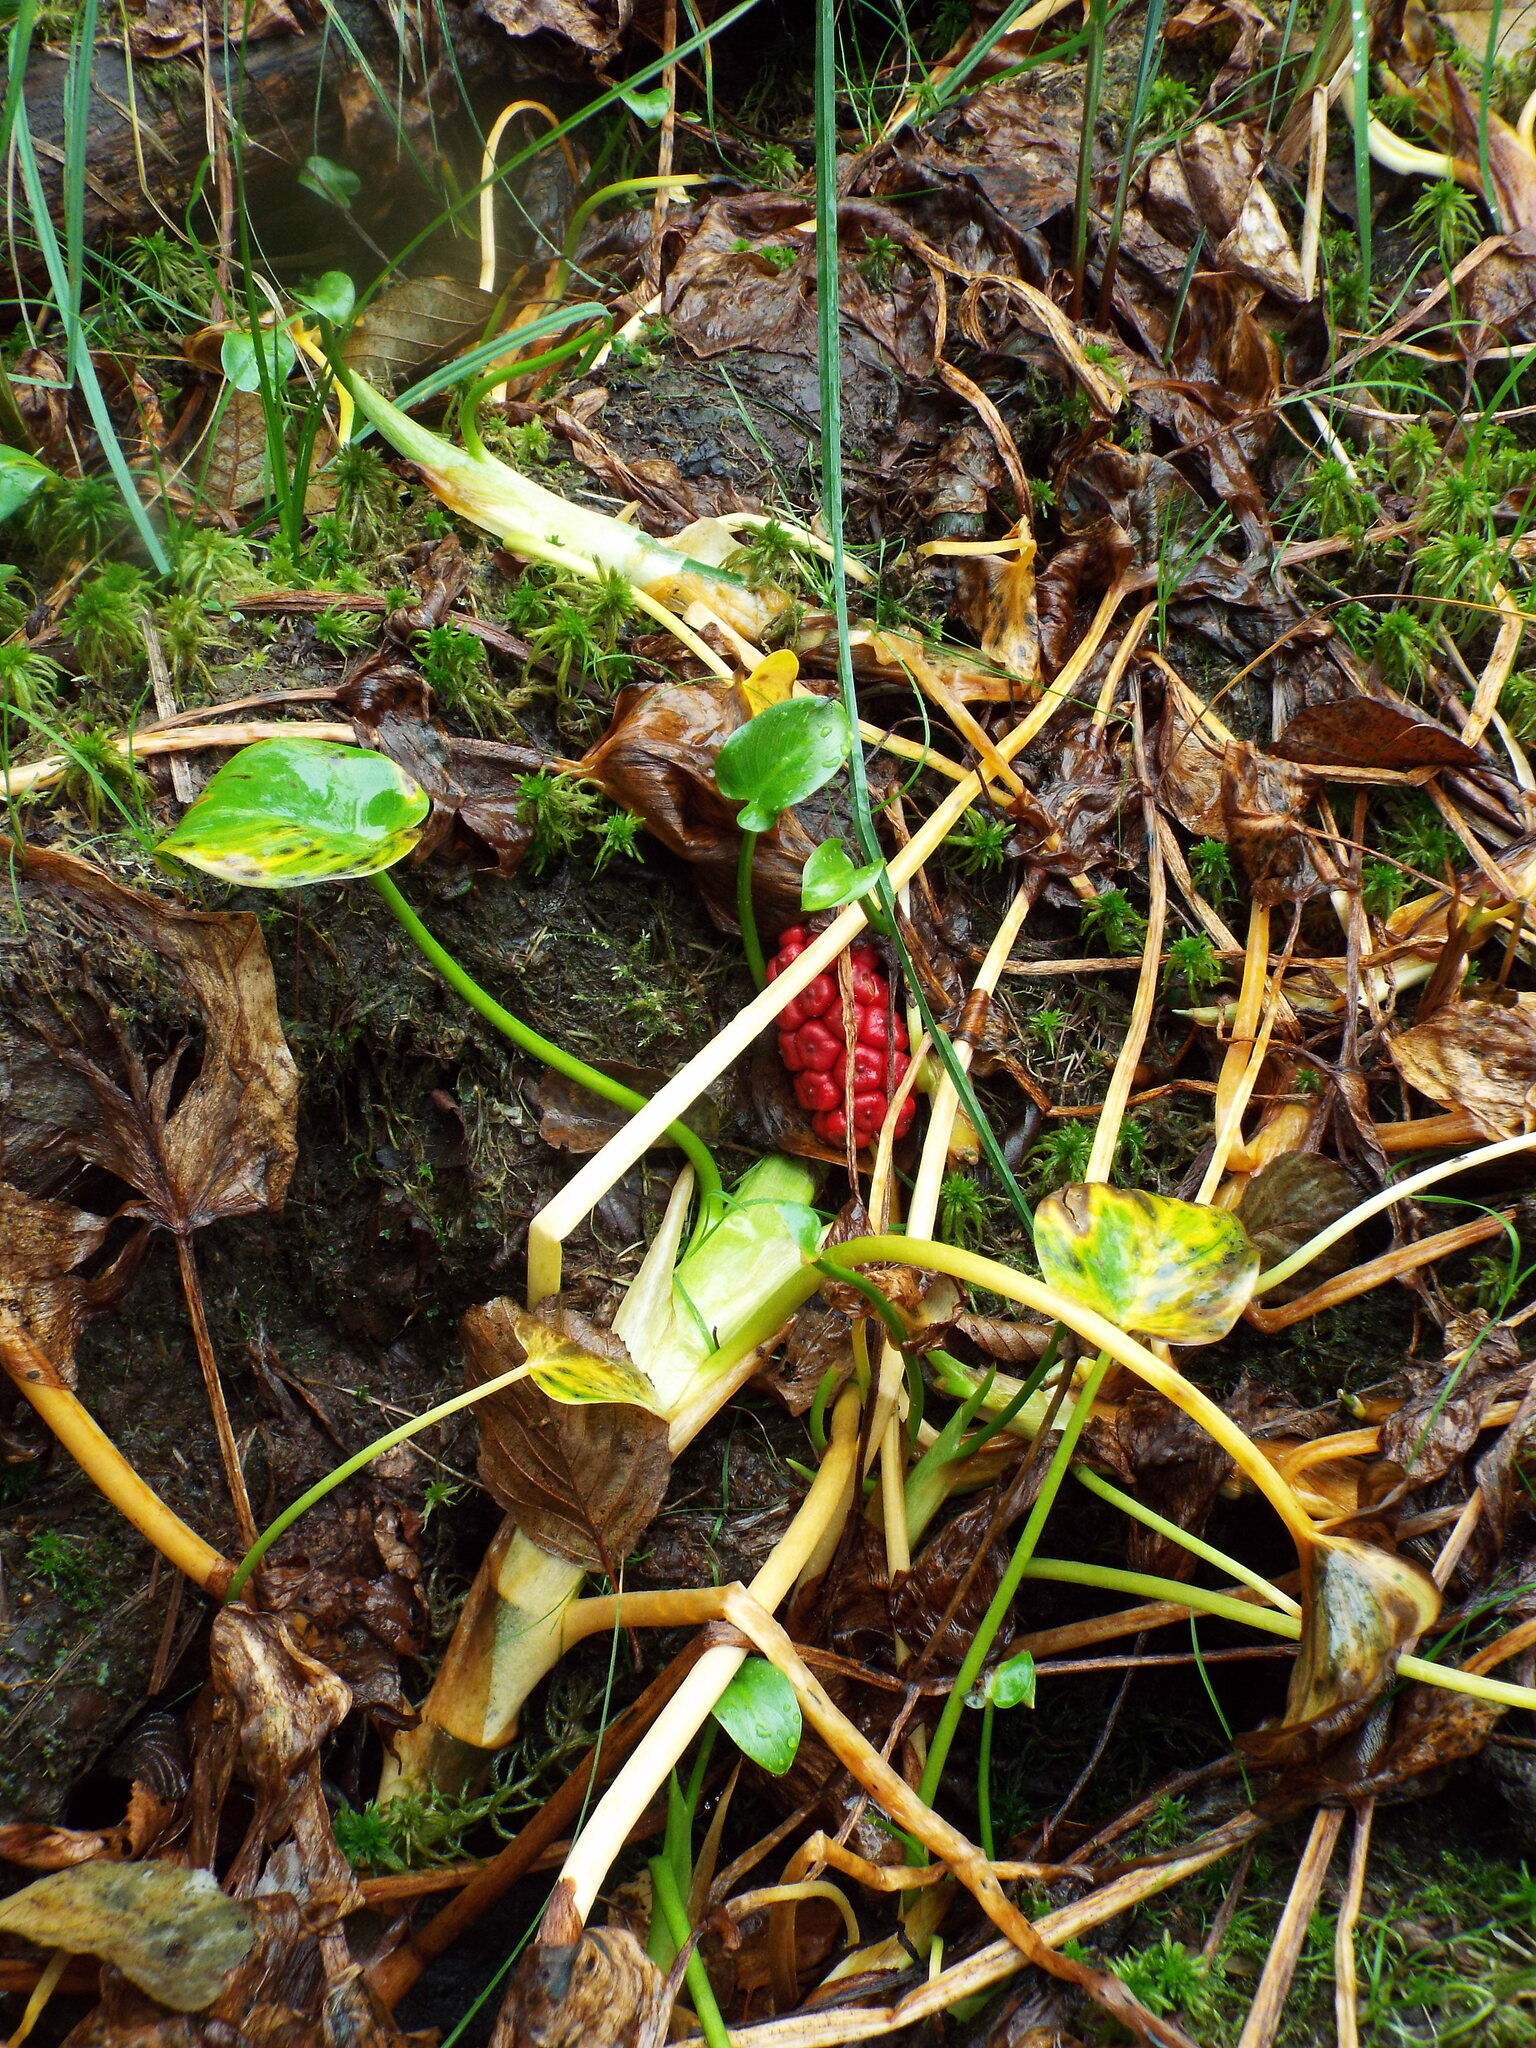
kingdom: Plantae
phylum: Tracheophyta
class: Liliopsida
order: Alismatales
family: Araceae
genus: Calla
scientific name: Calla palustris
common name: Bog arum
